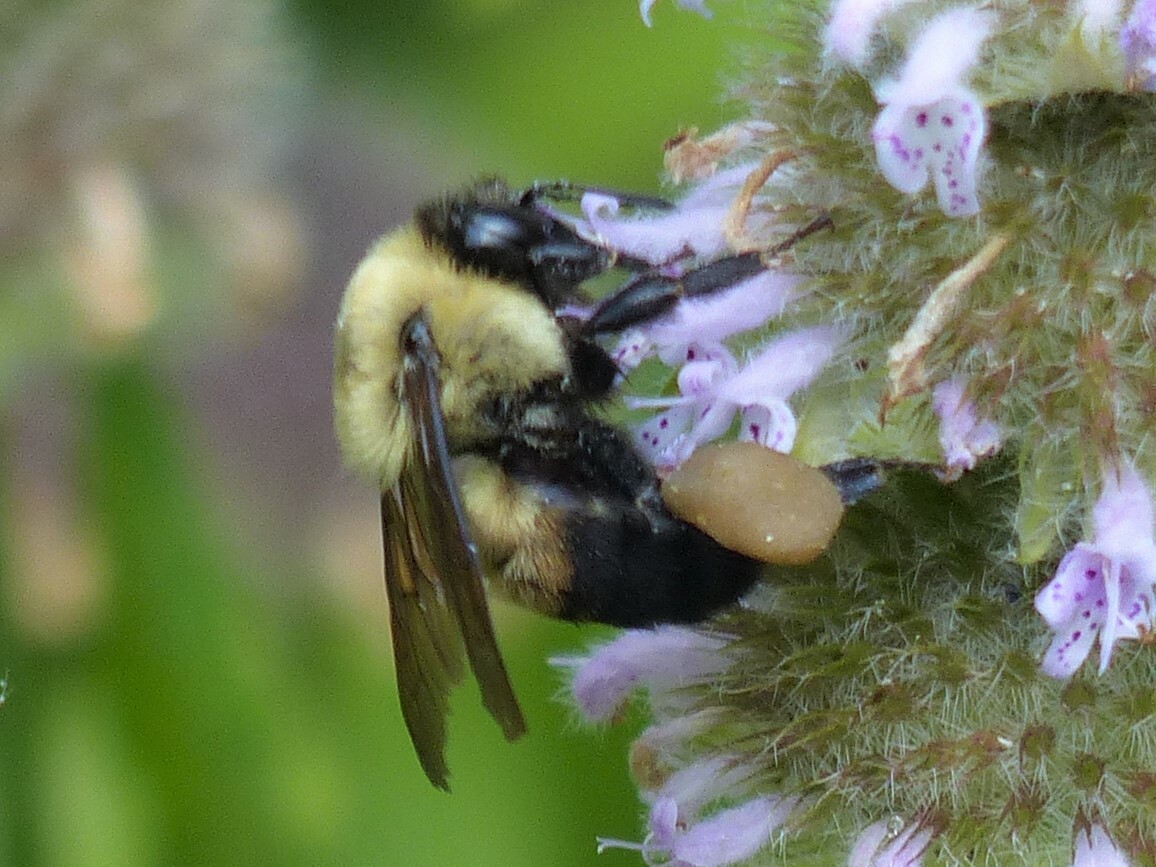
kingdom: Animalia
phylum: Arthropoda
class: Insecta
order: Hymenoptera
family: Apidae
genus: Bombus
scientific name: Bombus griseocollis
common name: Brown-belted bumble bee
